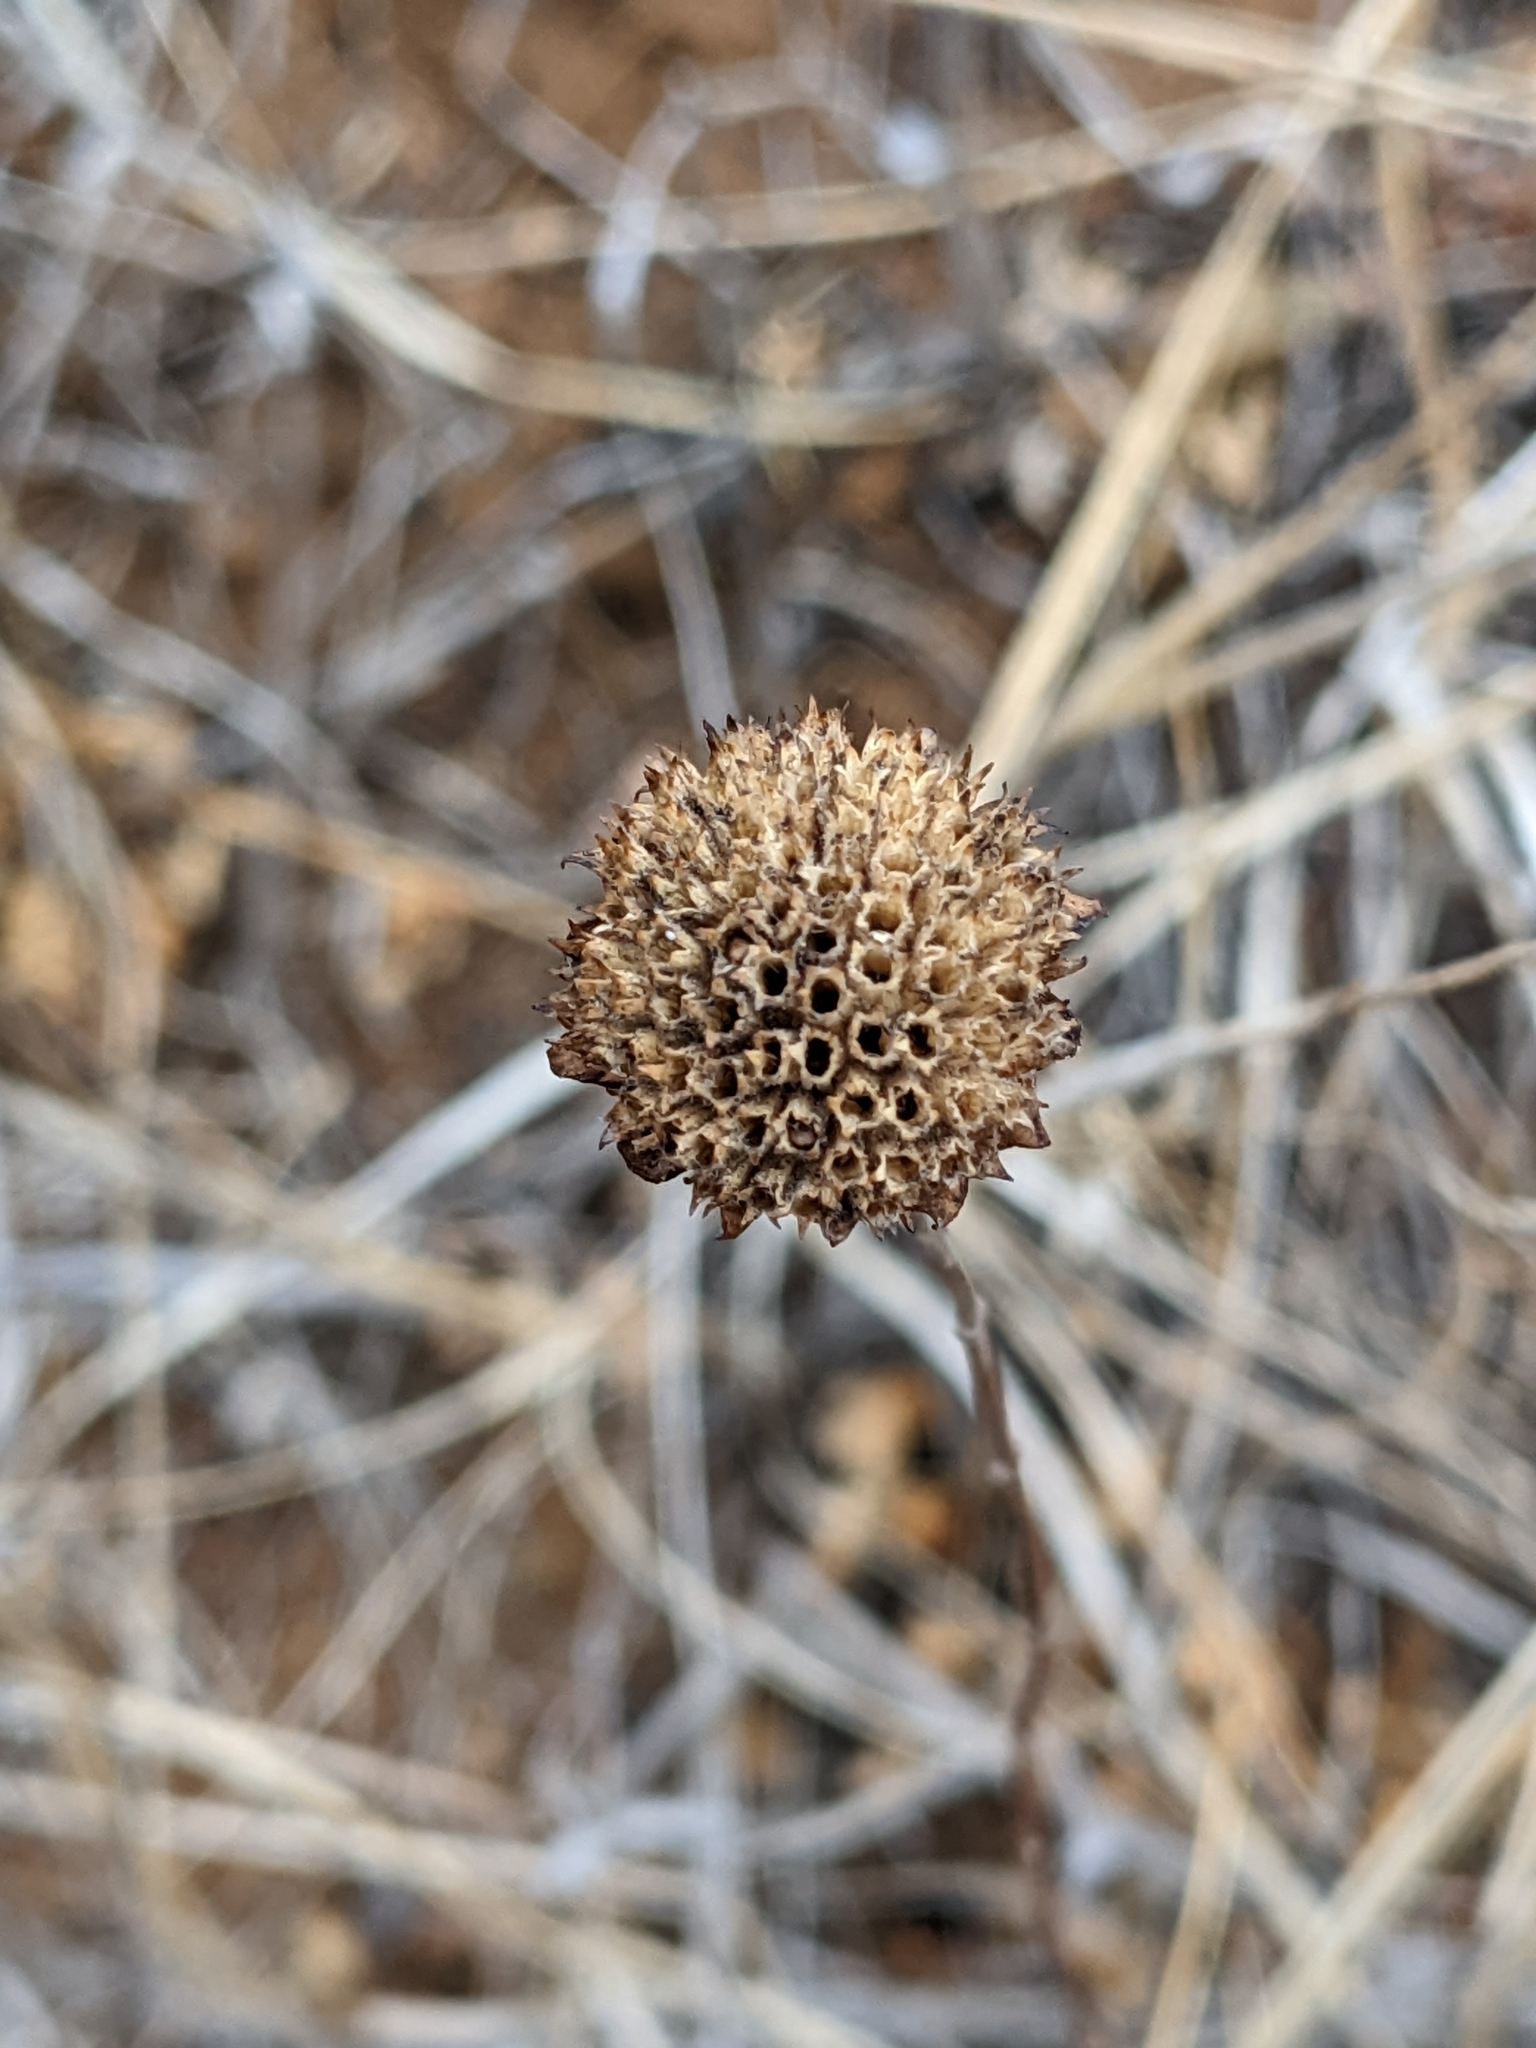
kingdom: Plantae
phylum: Tracheophyta
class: Magnoliopsida
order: Lamiales
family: Lamiaceae
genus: Monardella
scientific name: Monardella odoratissima
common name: Pacific monardella
